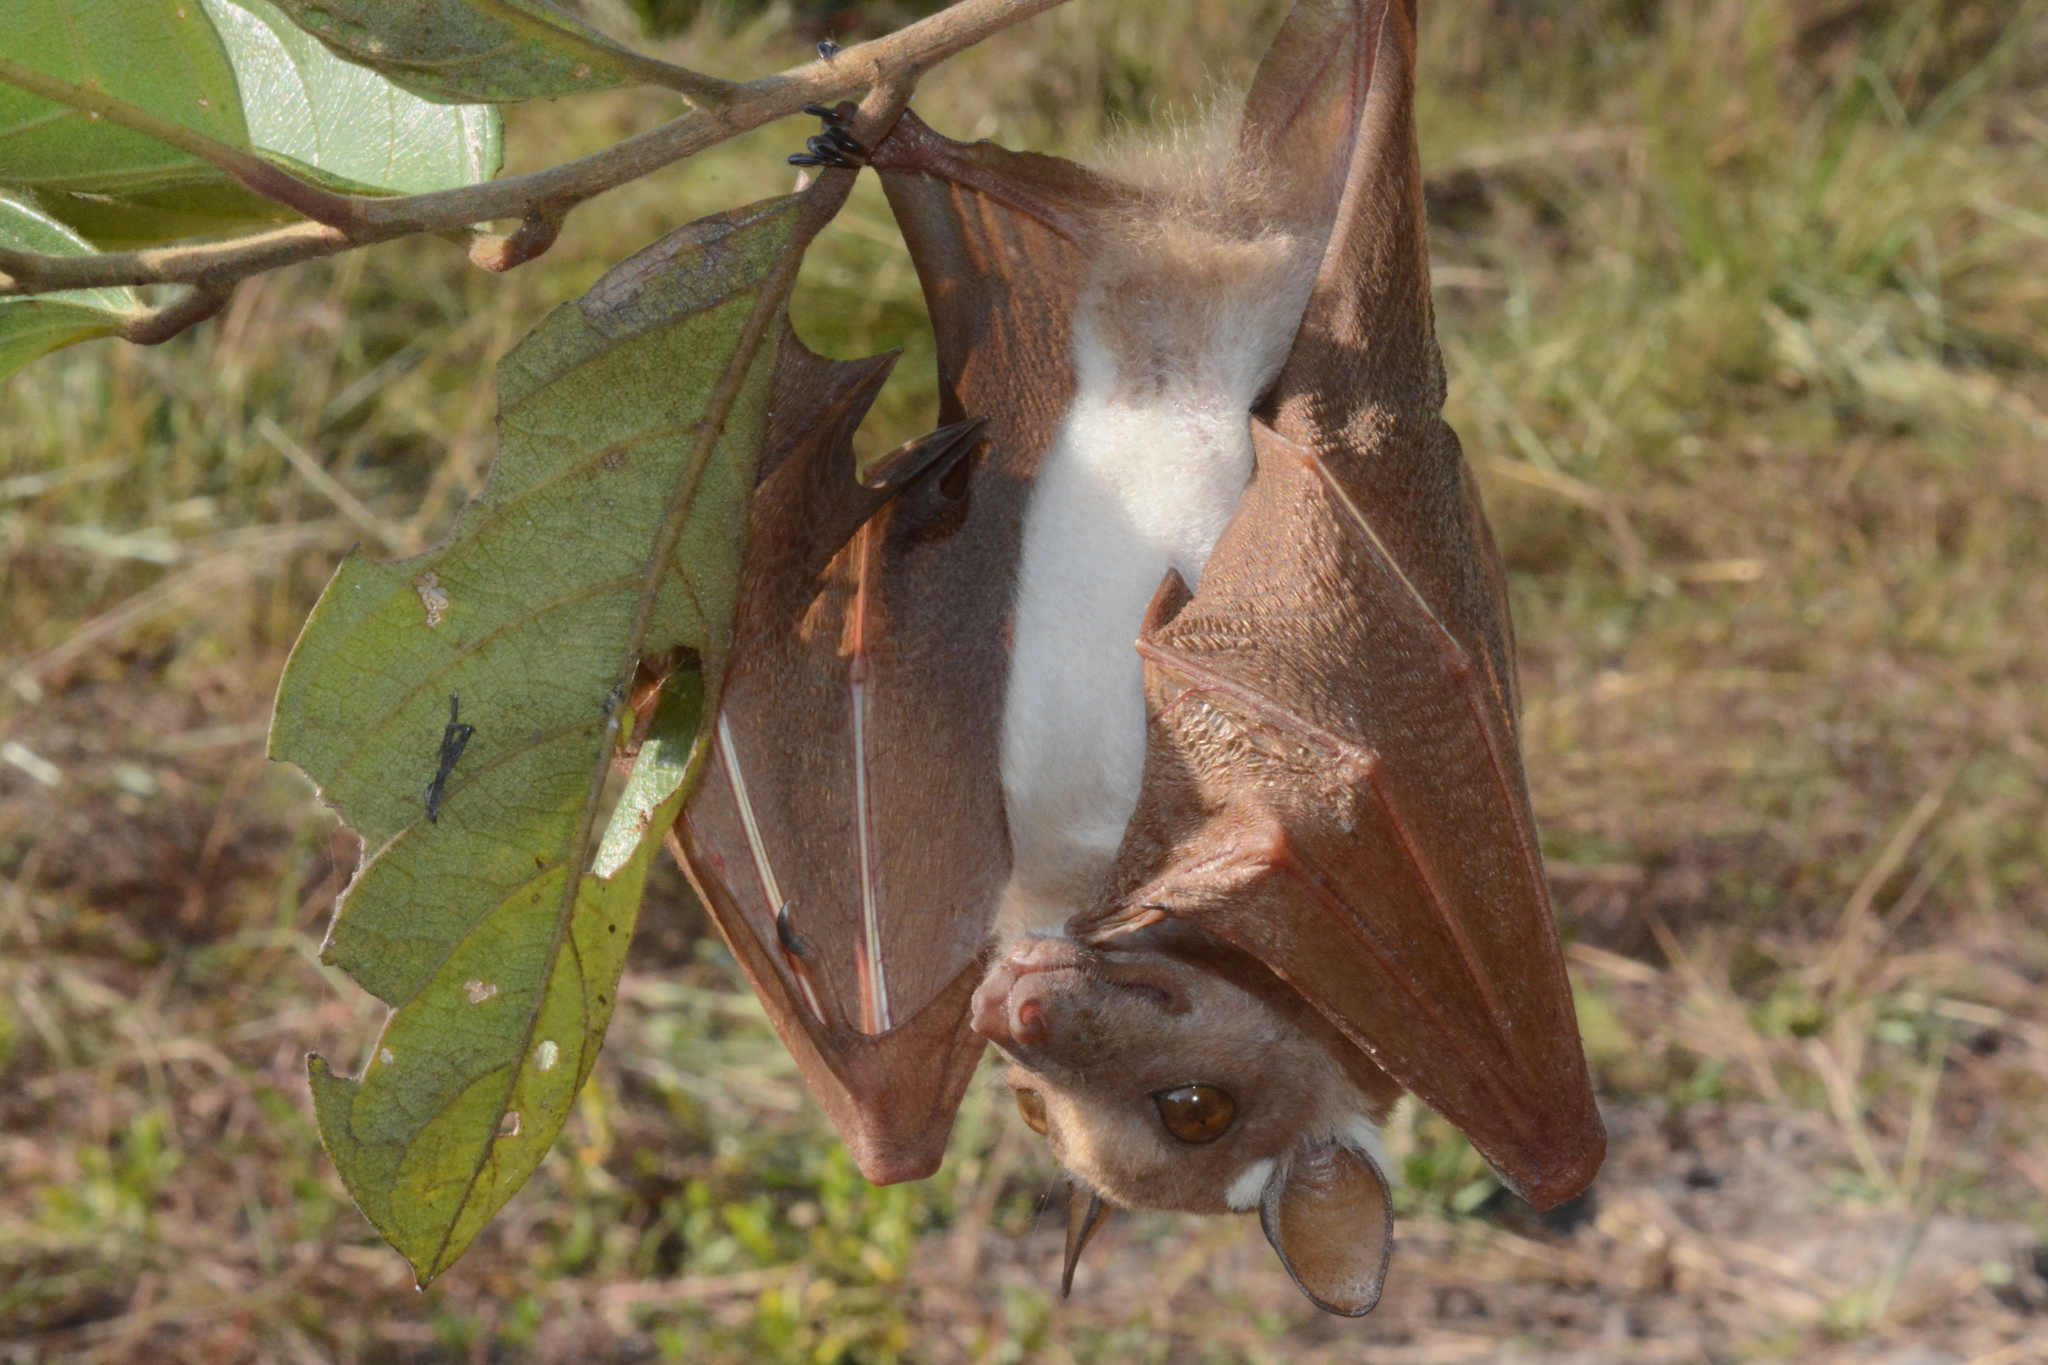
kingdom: Animalia
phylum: Chordata
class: Mammalia
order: Chiroptera
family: Pteropodidae
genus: Epomophorus
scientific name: Epomophorus
